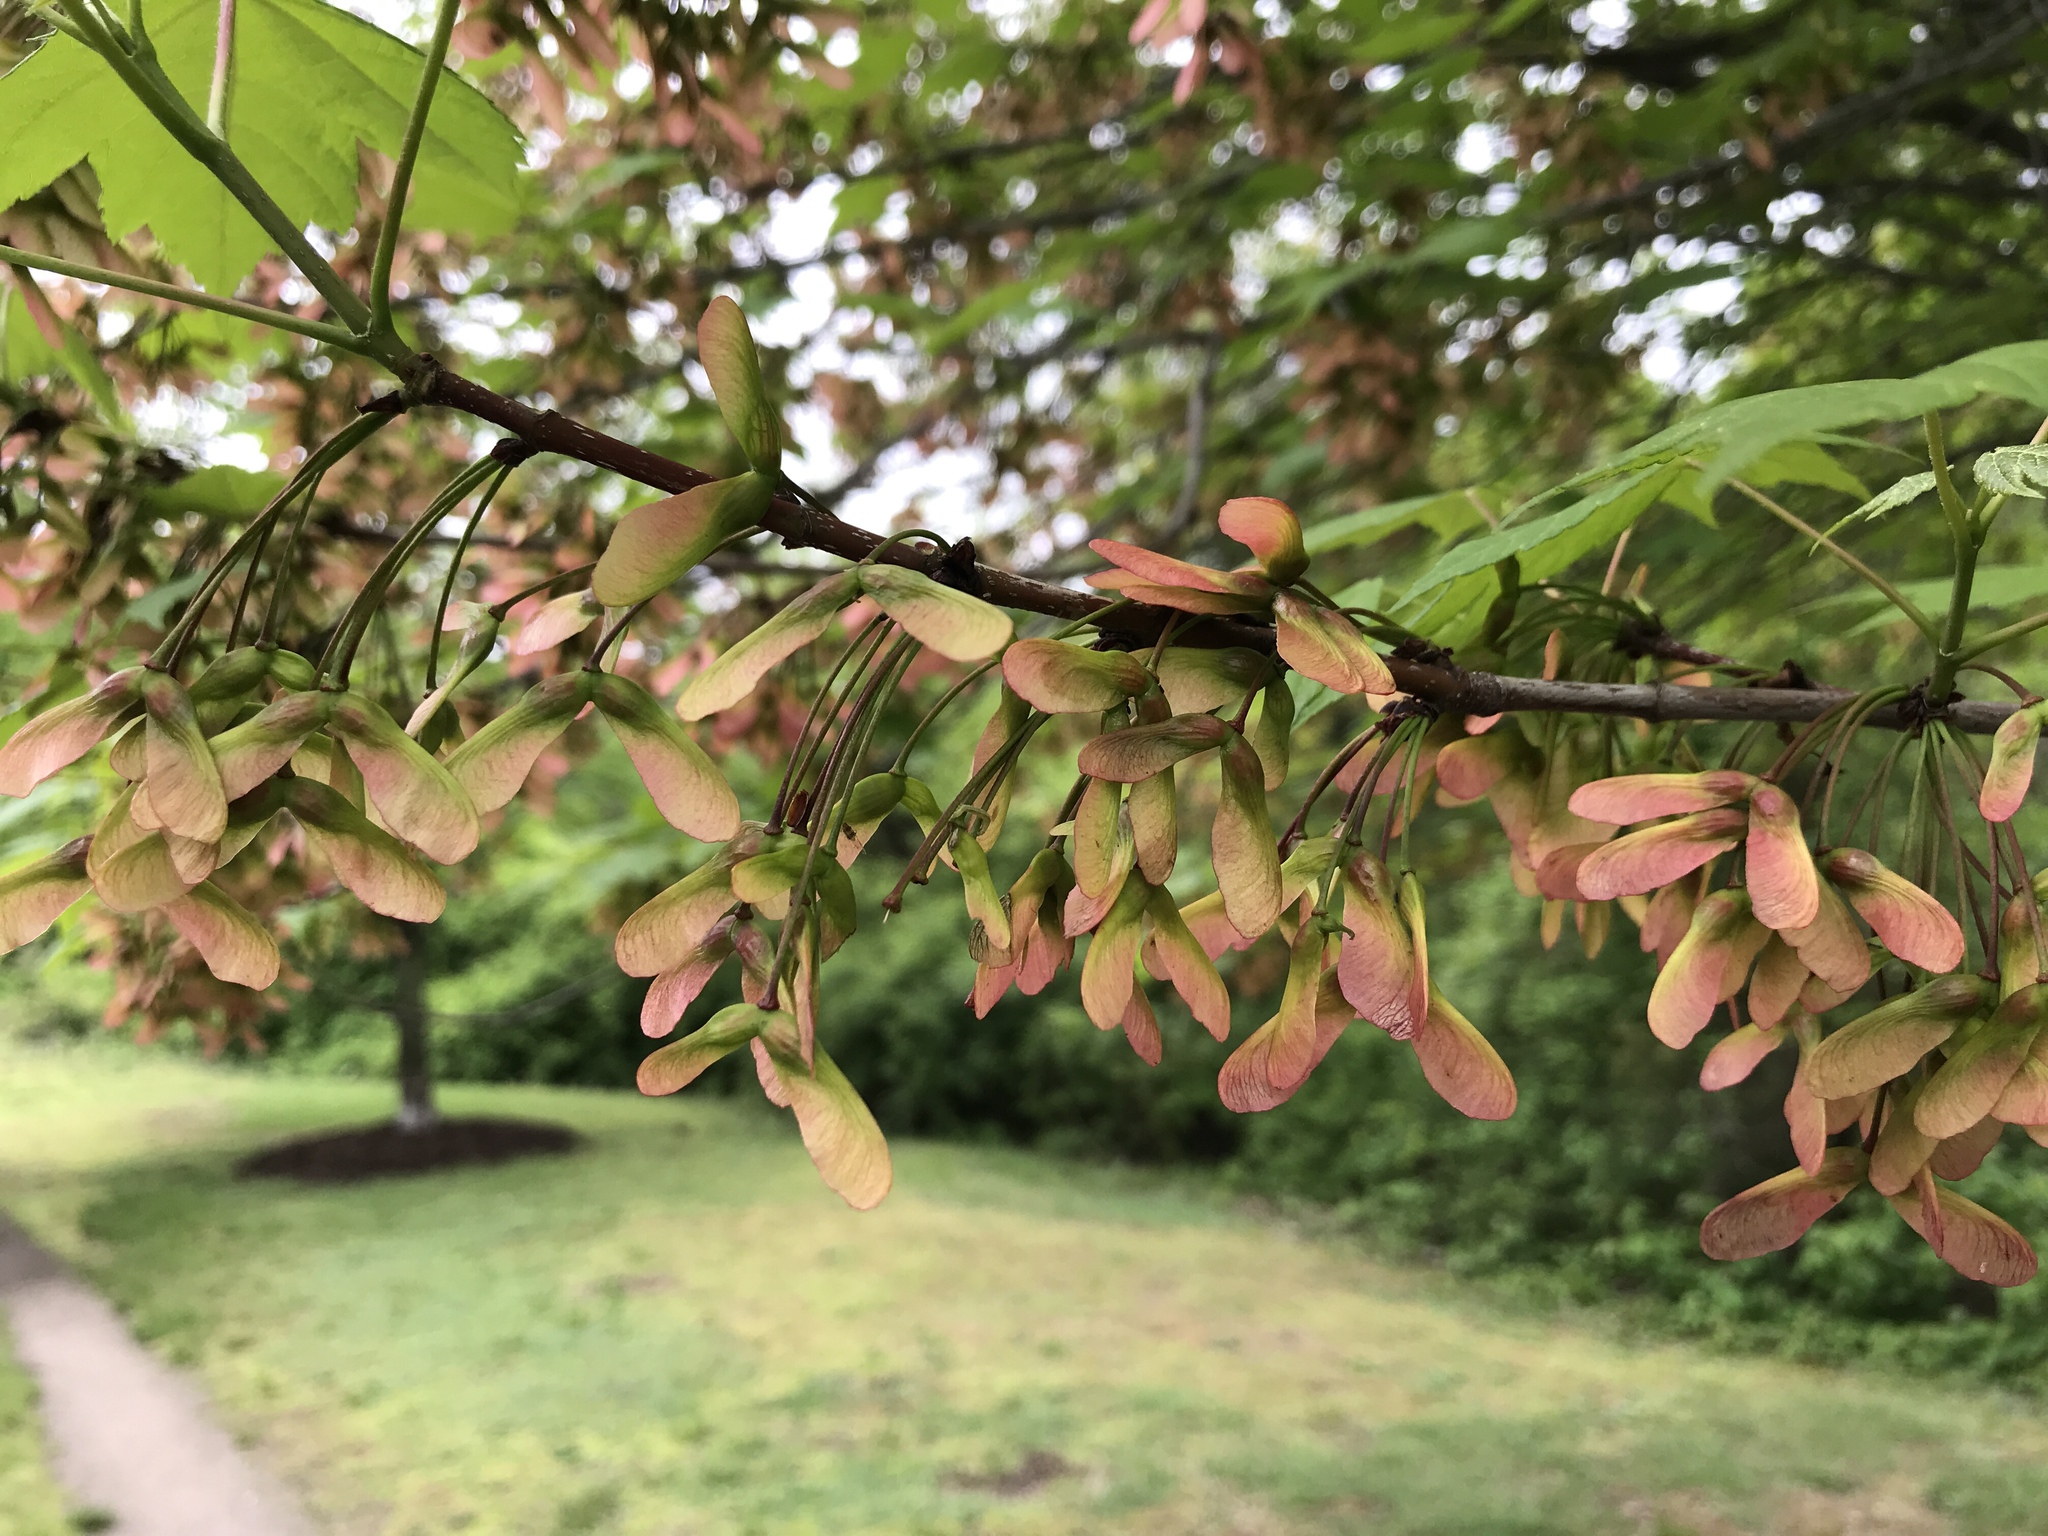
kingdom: Plantae
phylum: Tracheophyta
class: Magnoliopsida
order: Sapindales
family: Sapindaceae
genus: Acer
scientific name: Acer rubrum
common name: Red maple
